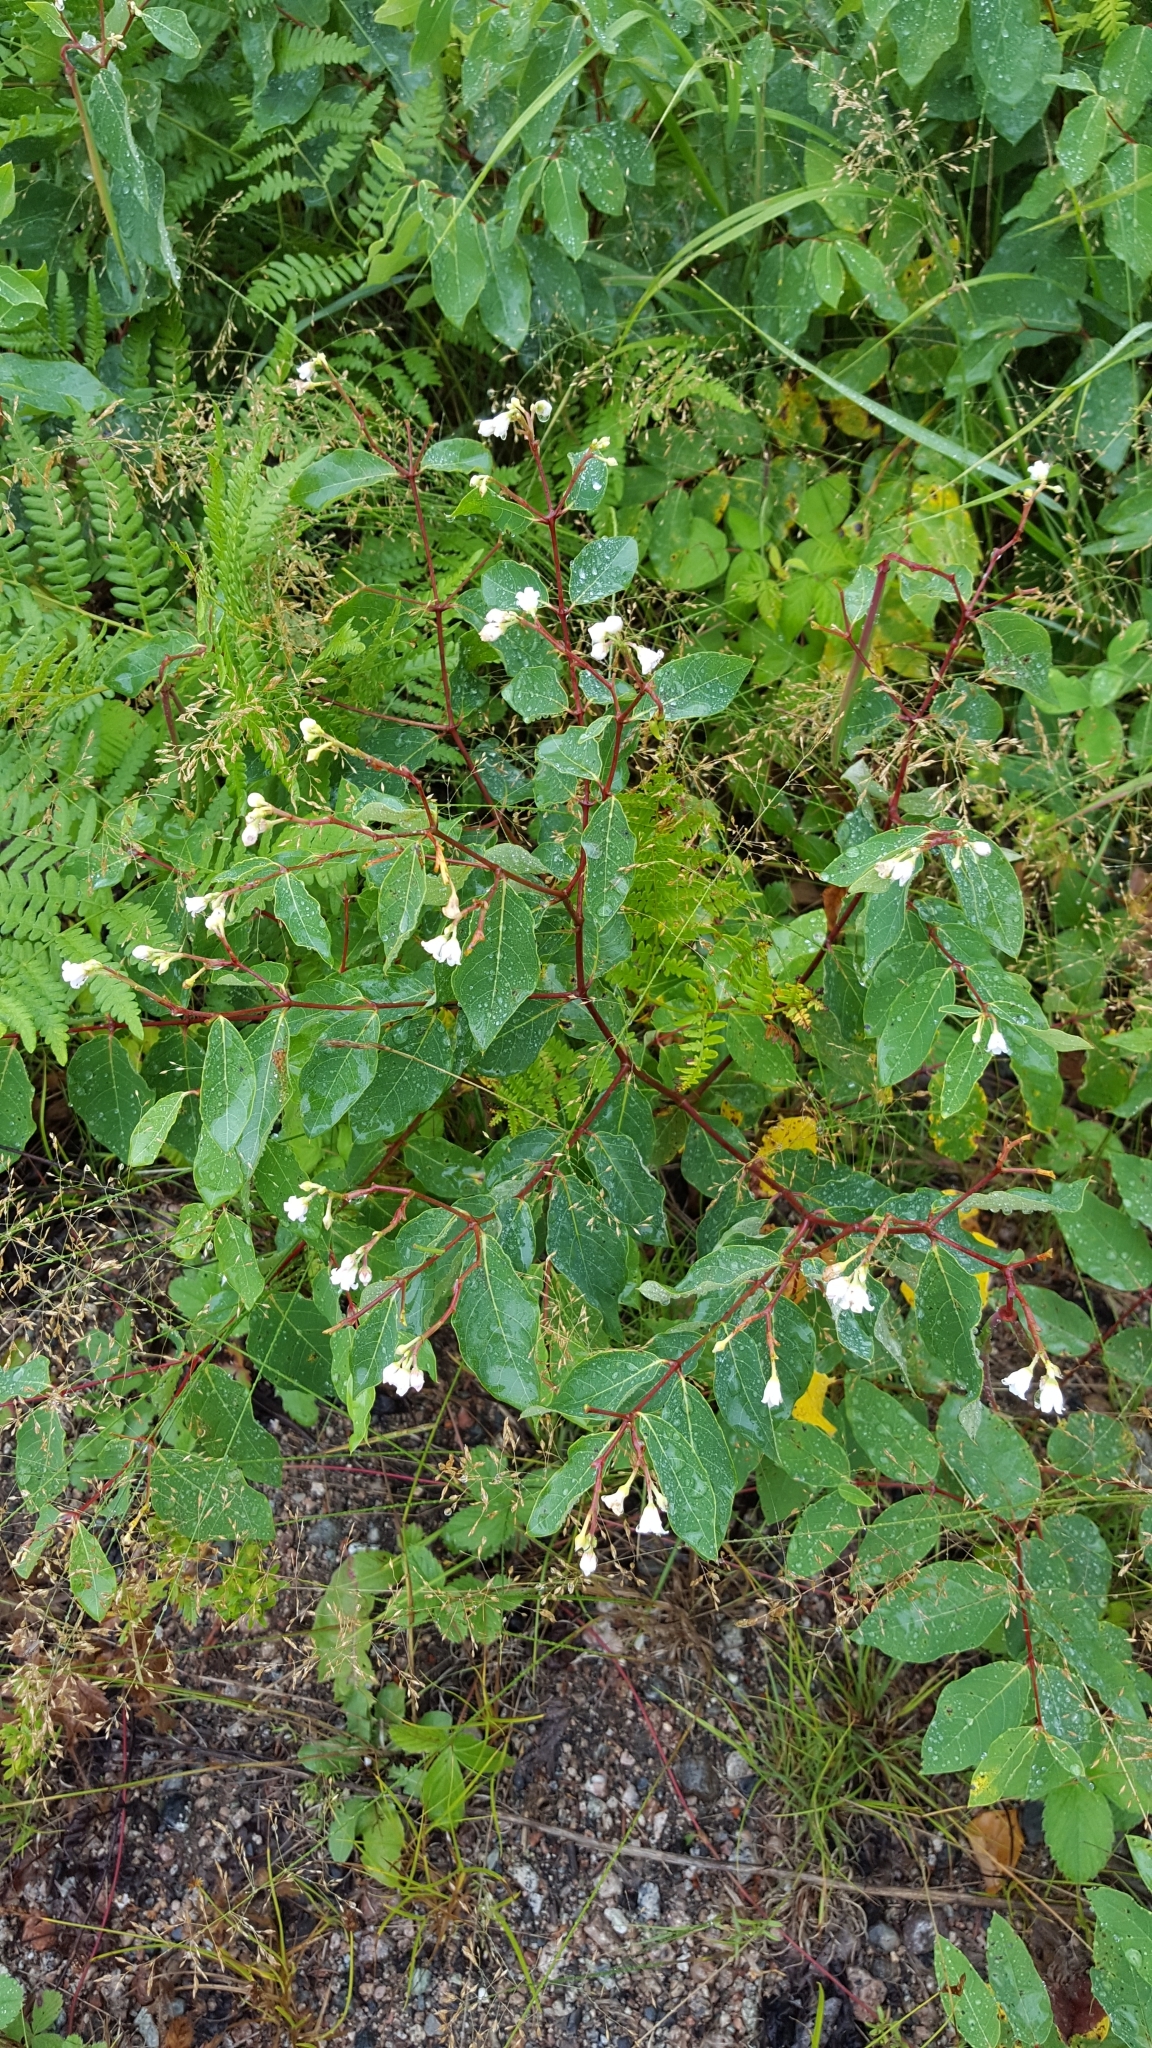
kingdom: Plantae
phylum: Tracheophyta
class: Magnoliopsida
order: Gentianales
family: Apocynaceae
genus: Apocynum
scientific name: Apocynum androsaemifolium
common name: Spreading dogbane
